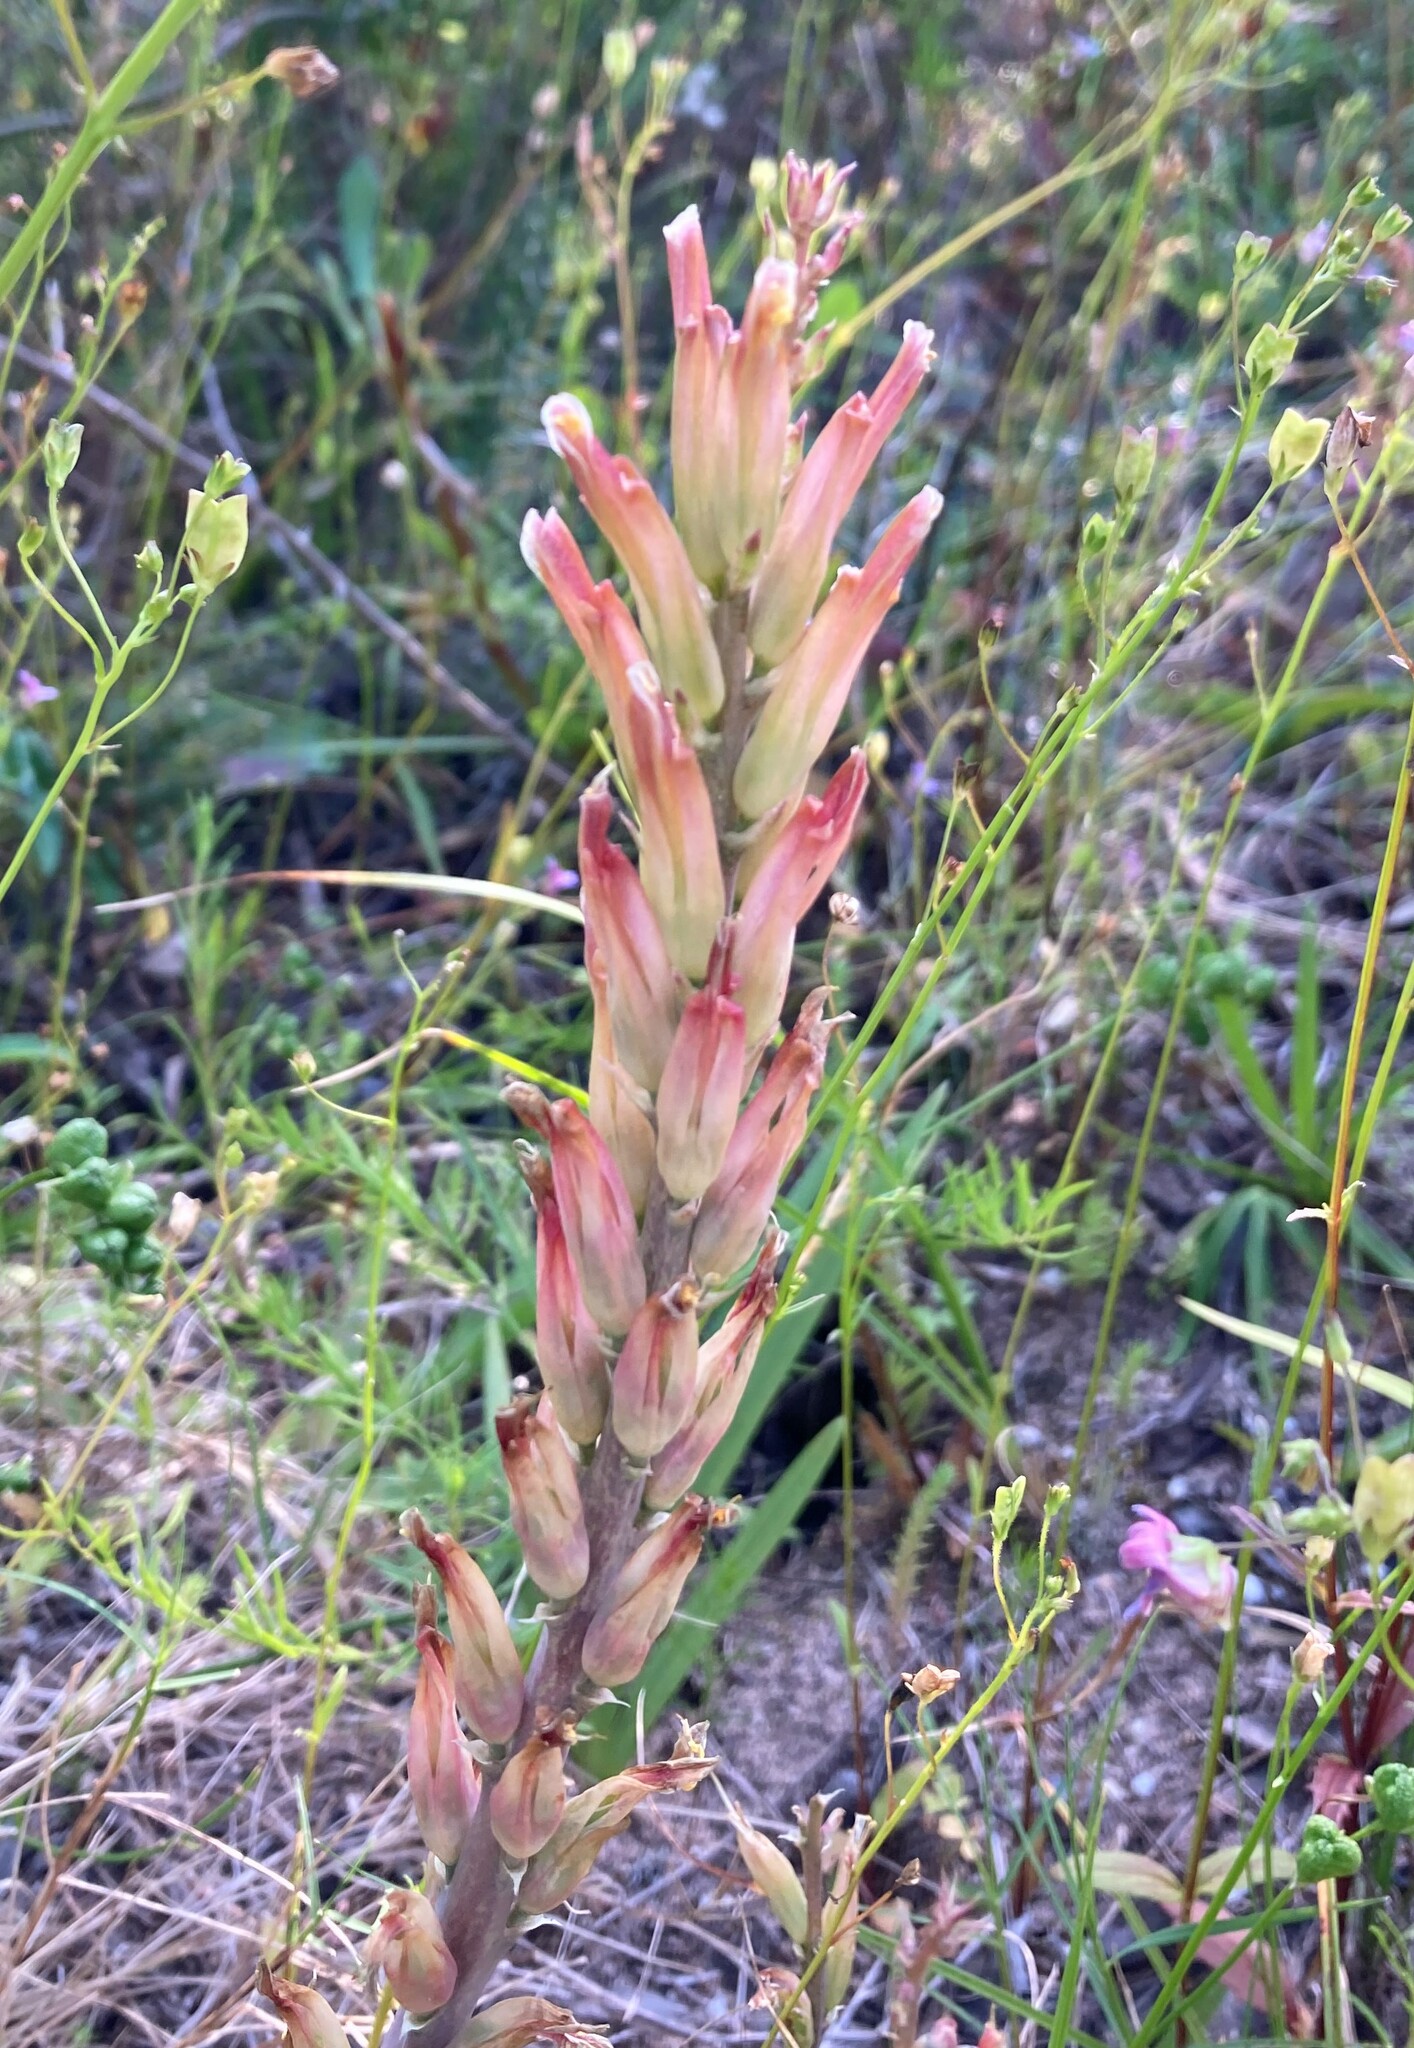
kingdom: Plantae
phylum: Tracheophyta
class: Liliopsida
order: Asparagales
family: Asparagaceae
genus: Lachenalia
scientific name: Lachenalia algoensis
